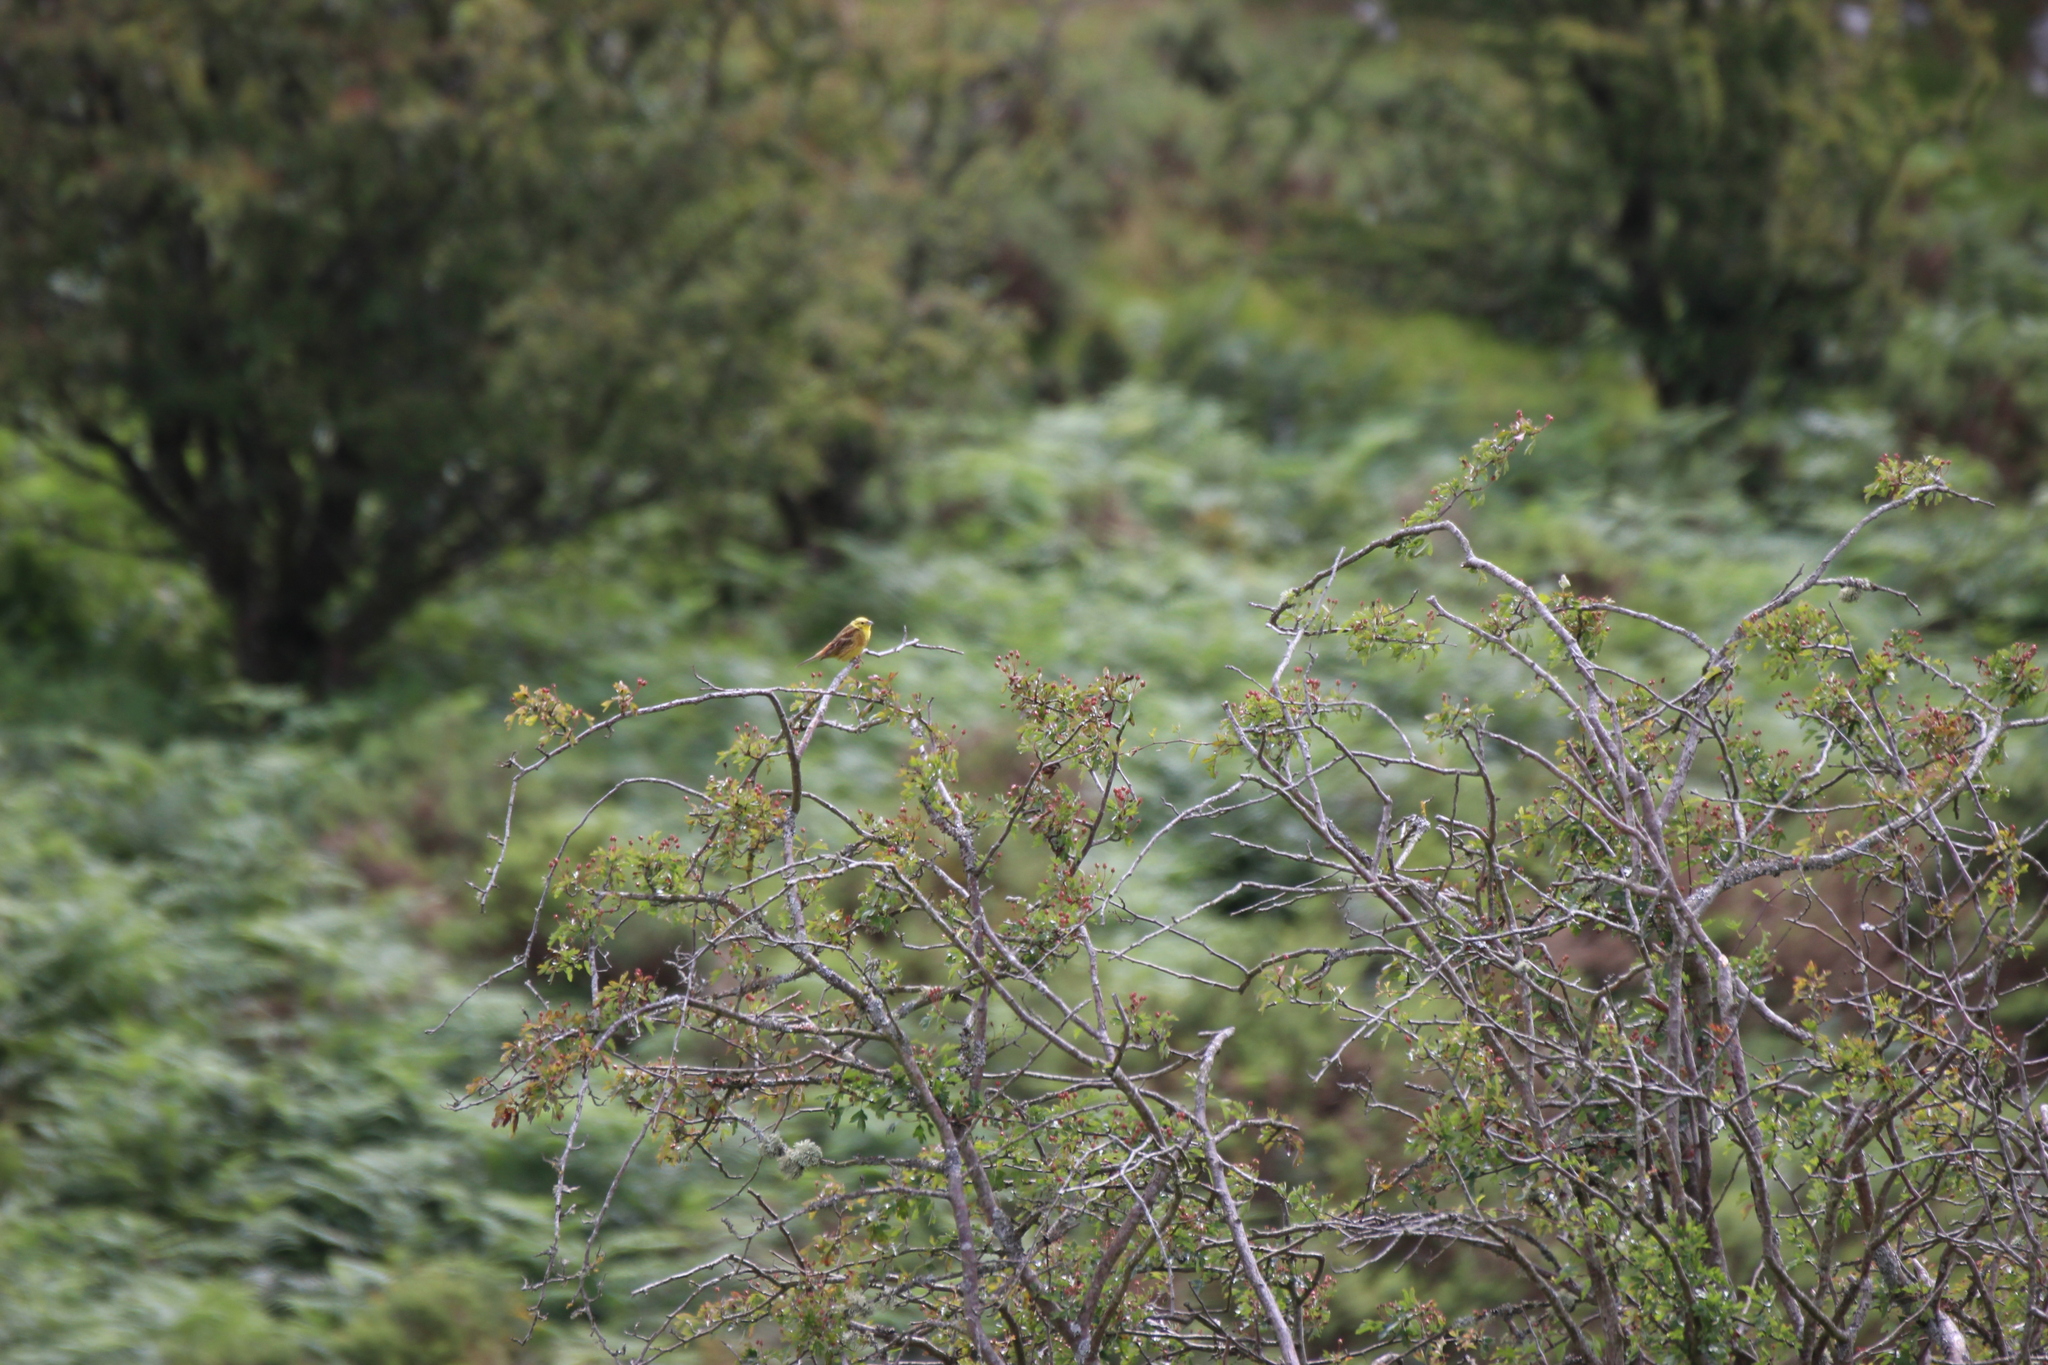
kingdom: Animalia
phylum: Chordata
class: Aves
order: Passeriformes
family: Emberizidae
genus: Emberiza
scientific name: Emberiza citrinella
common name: Yellowhammer
